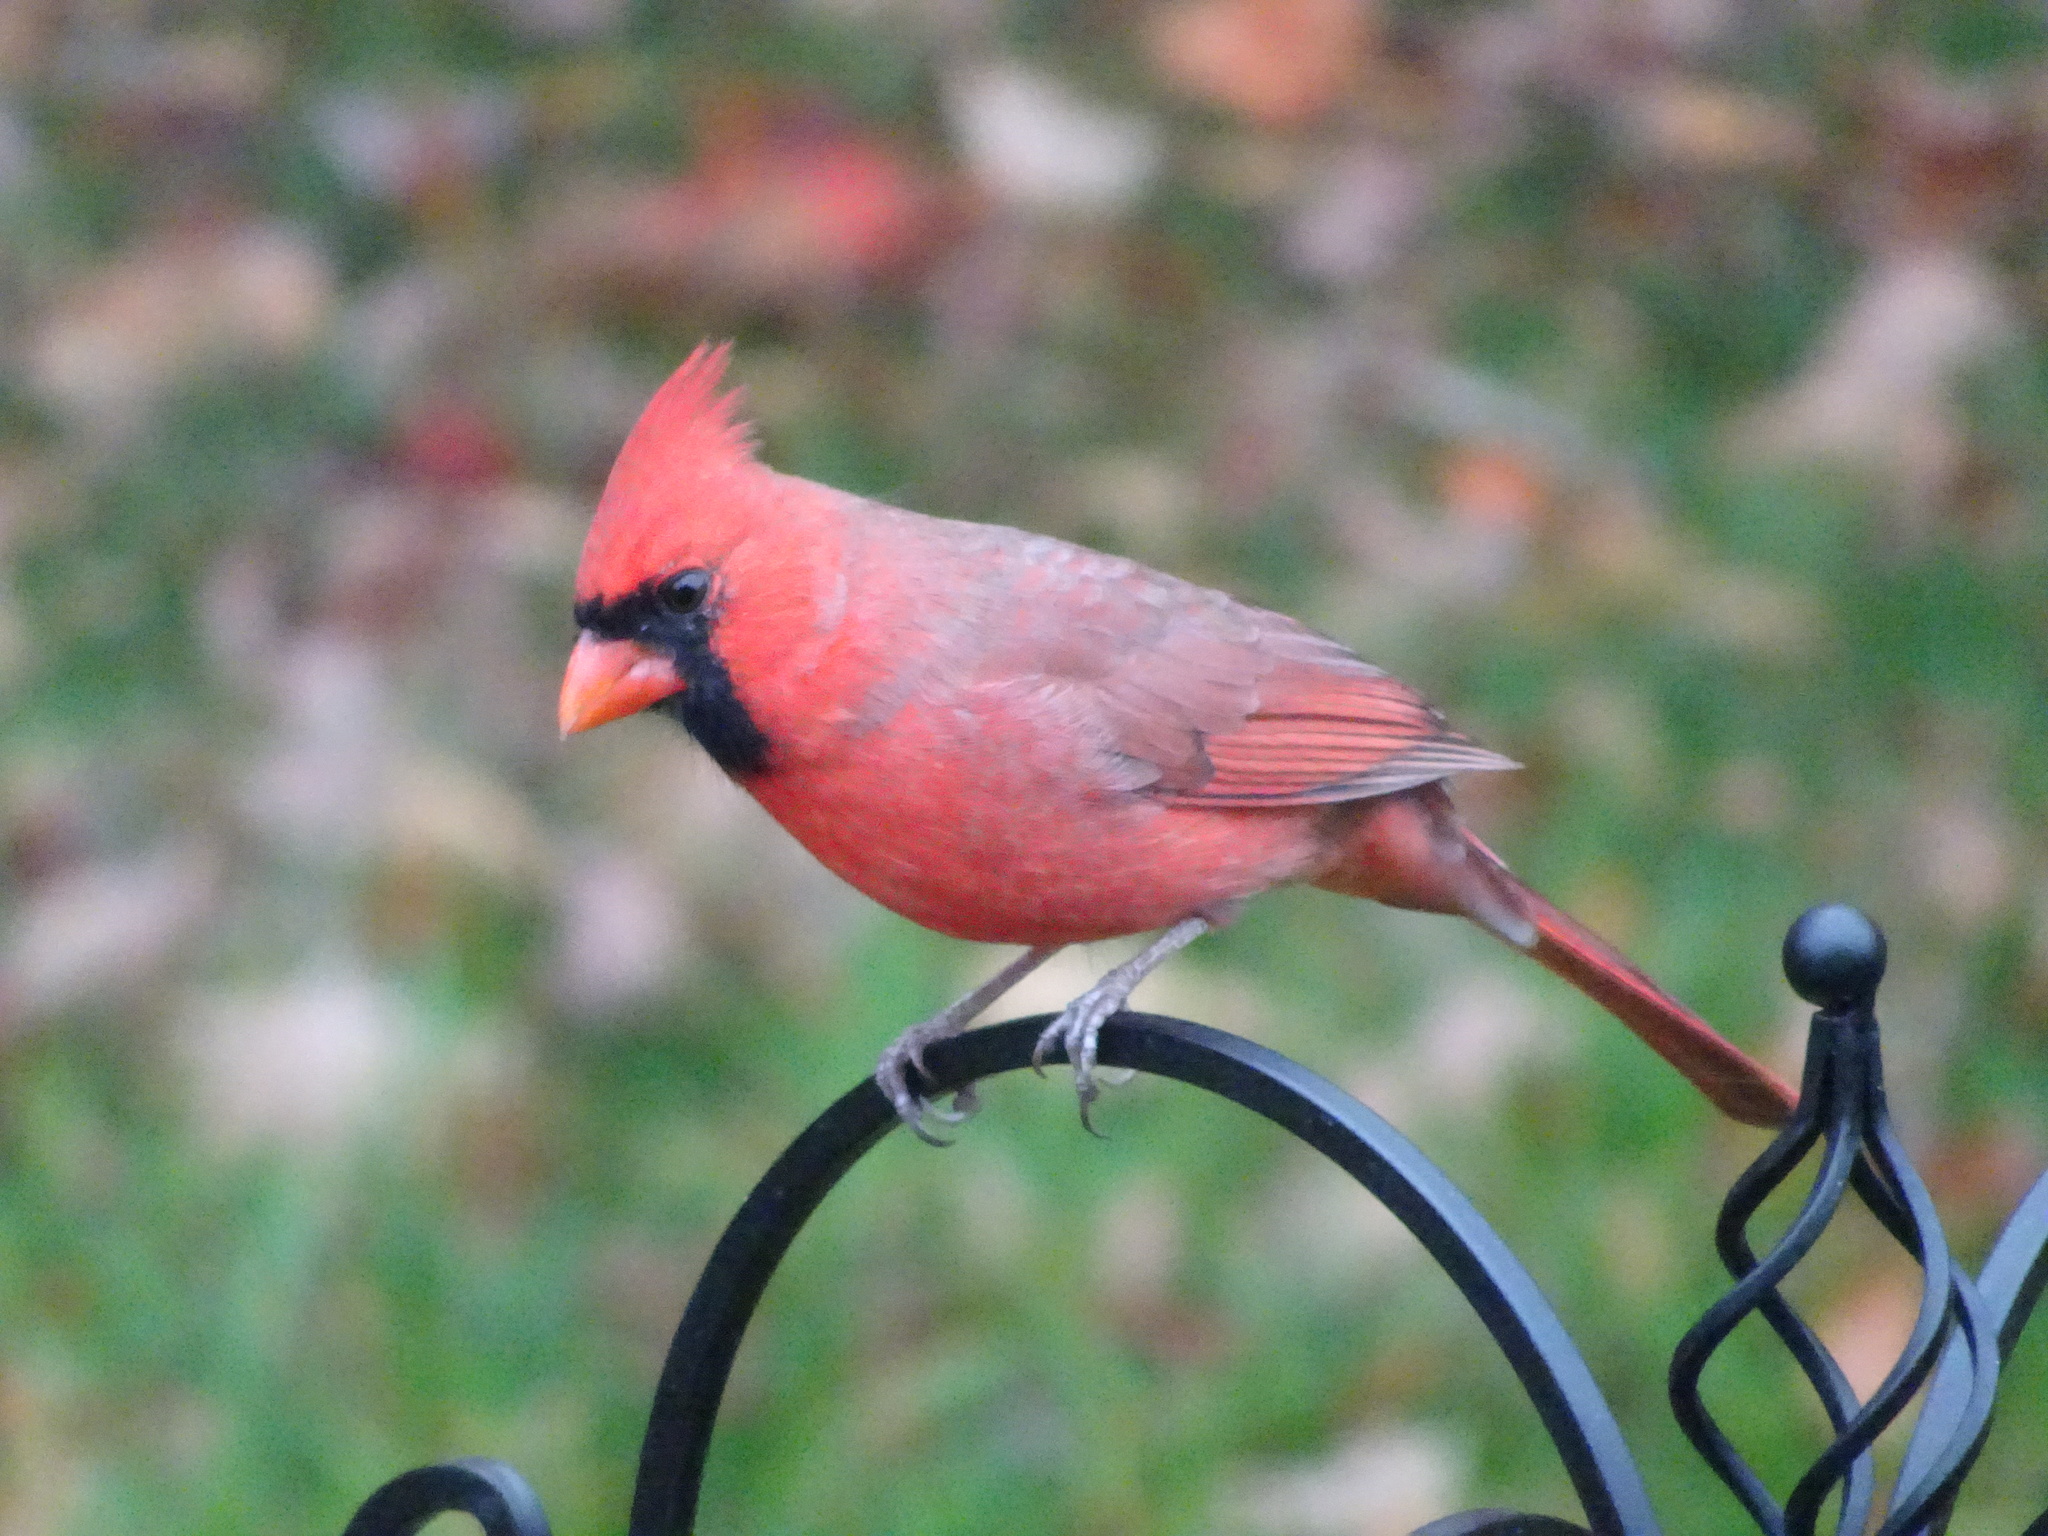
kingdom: Animalia
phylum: Chordata
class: Aves
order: Passeriformes
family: Cardinalidae
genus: Cardinalis
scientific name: Cardinalis cardinalis
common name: Northern cardinal
